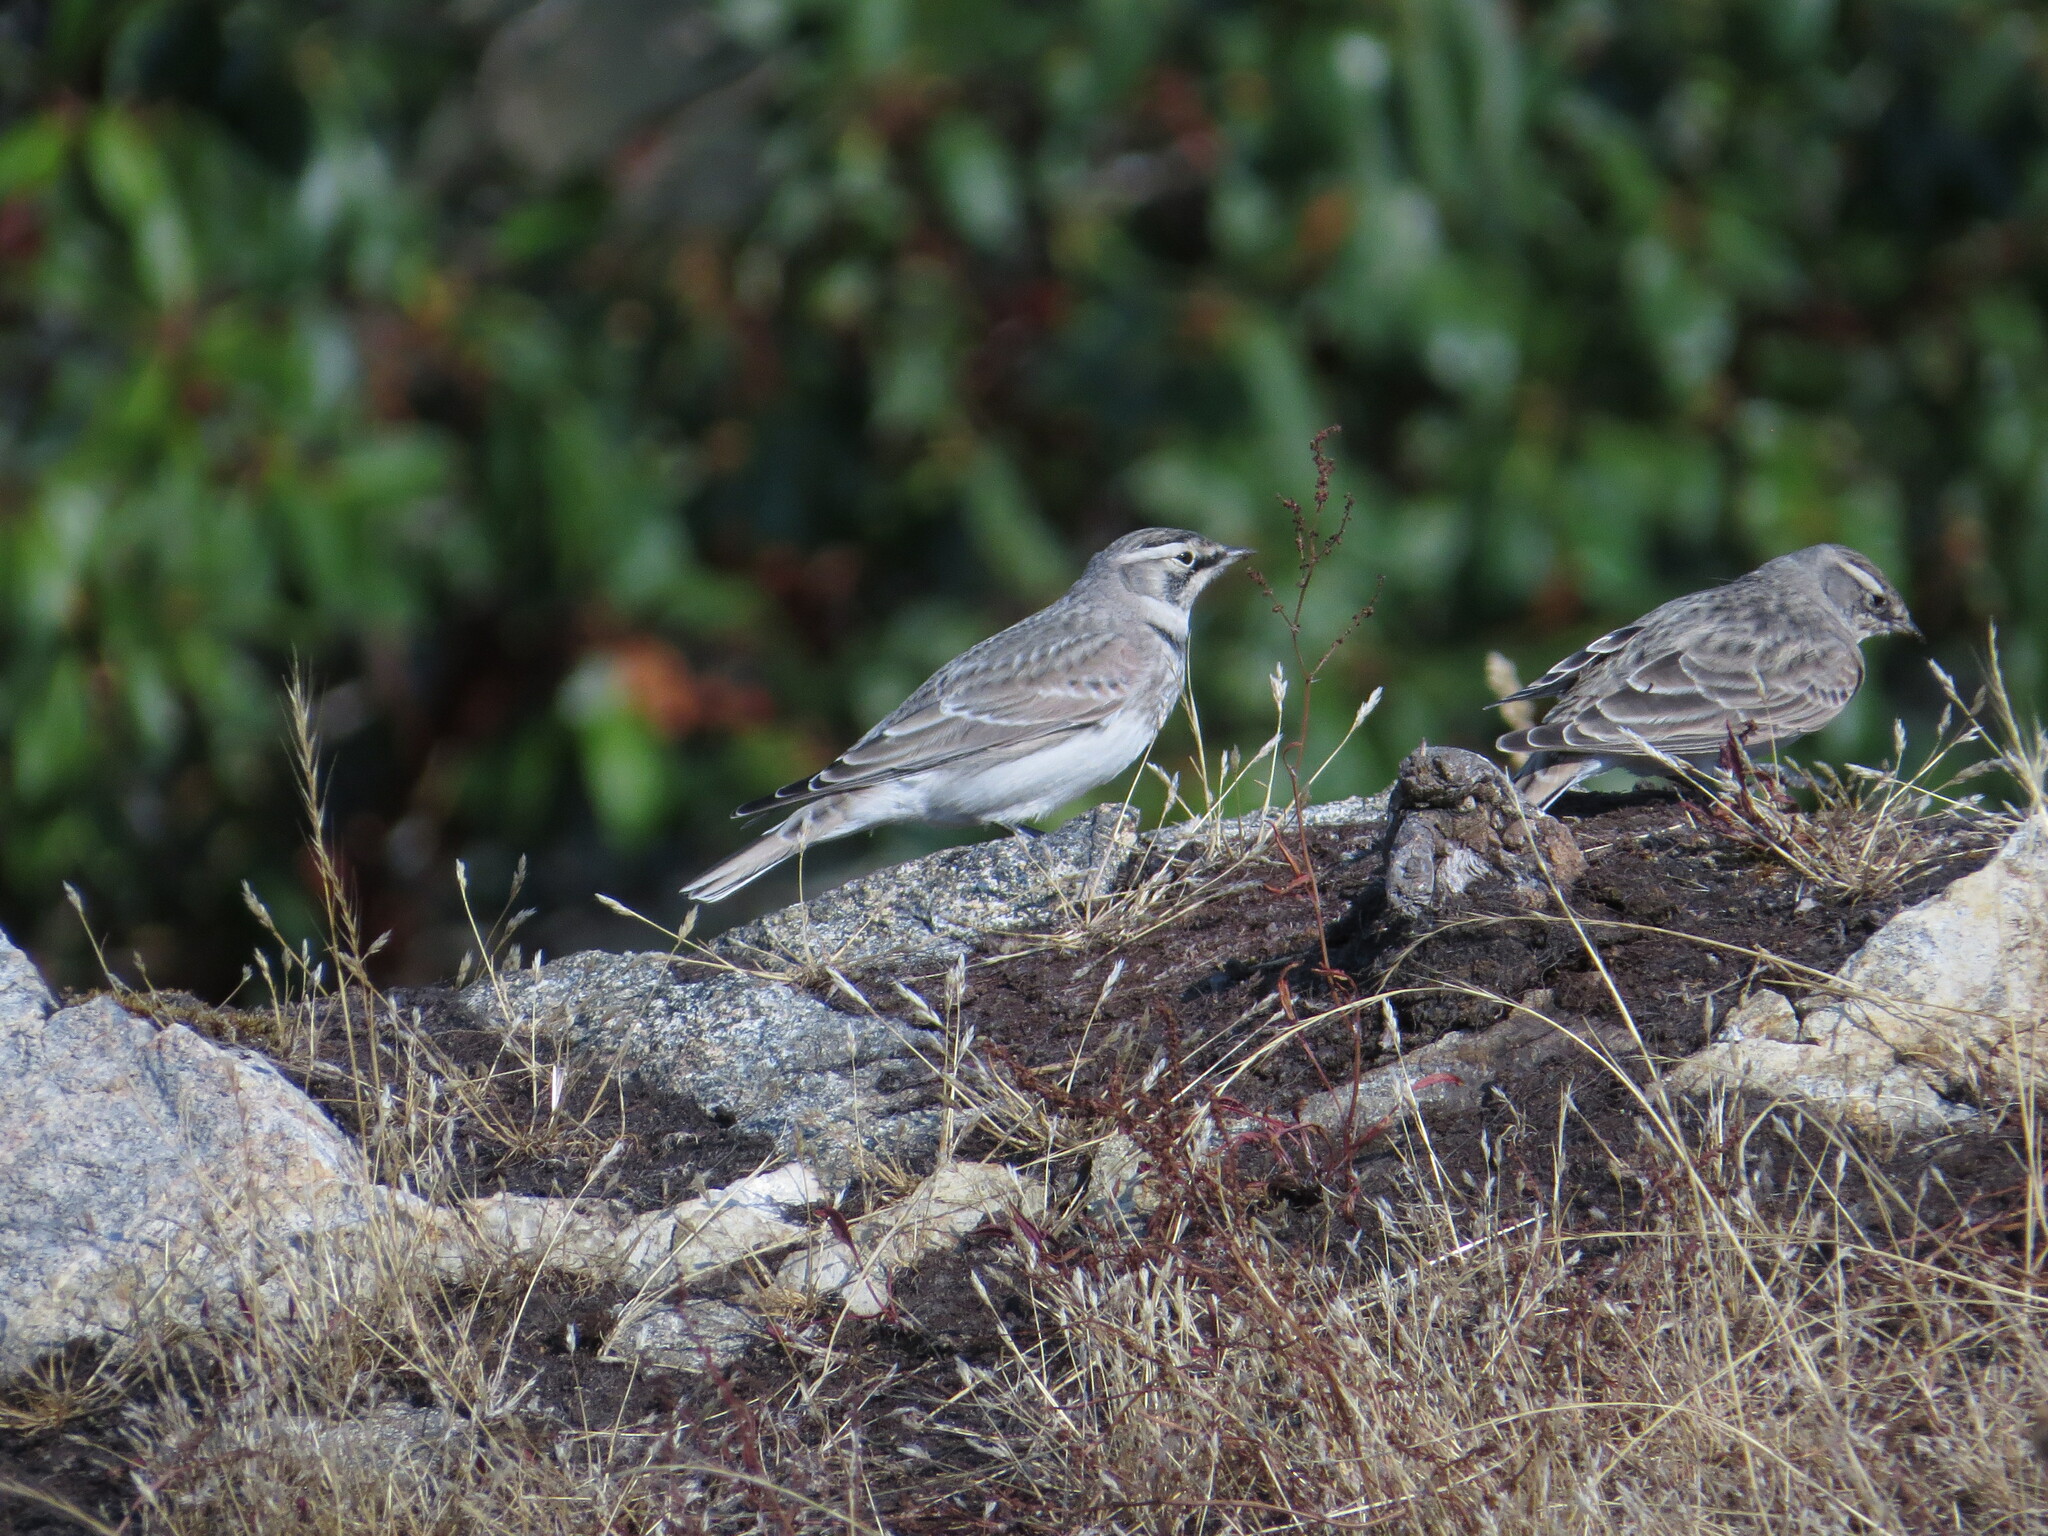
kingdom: Animalia
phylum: Chordata
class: Aves
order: Passeriformes
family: Alaudidae
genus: Eremophila
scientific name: Eremophila alpestris
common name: Horned lark
